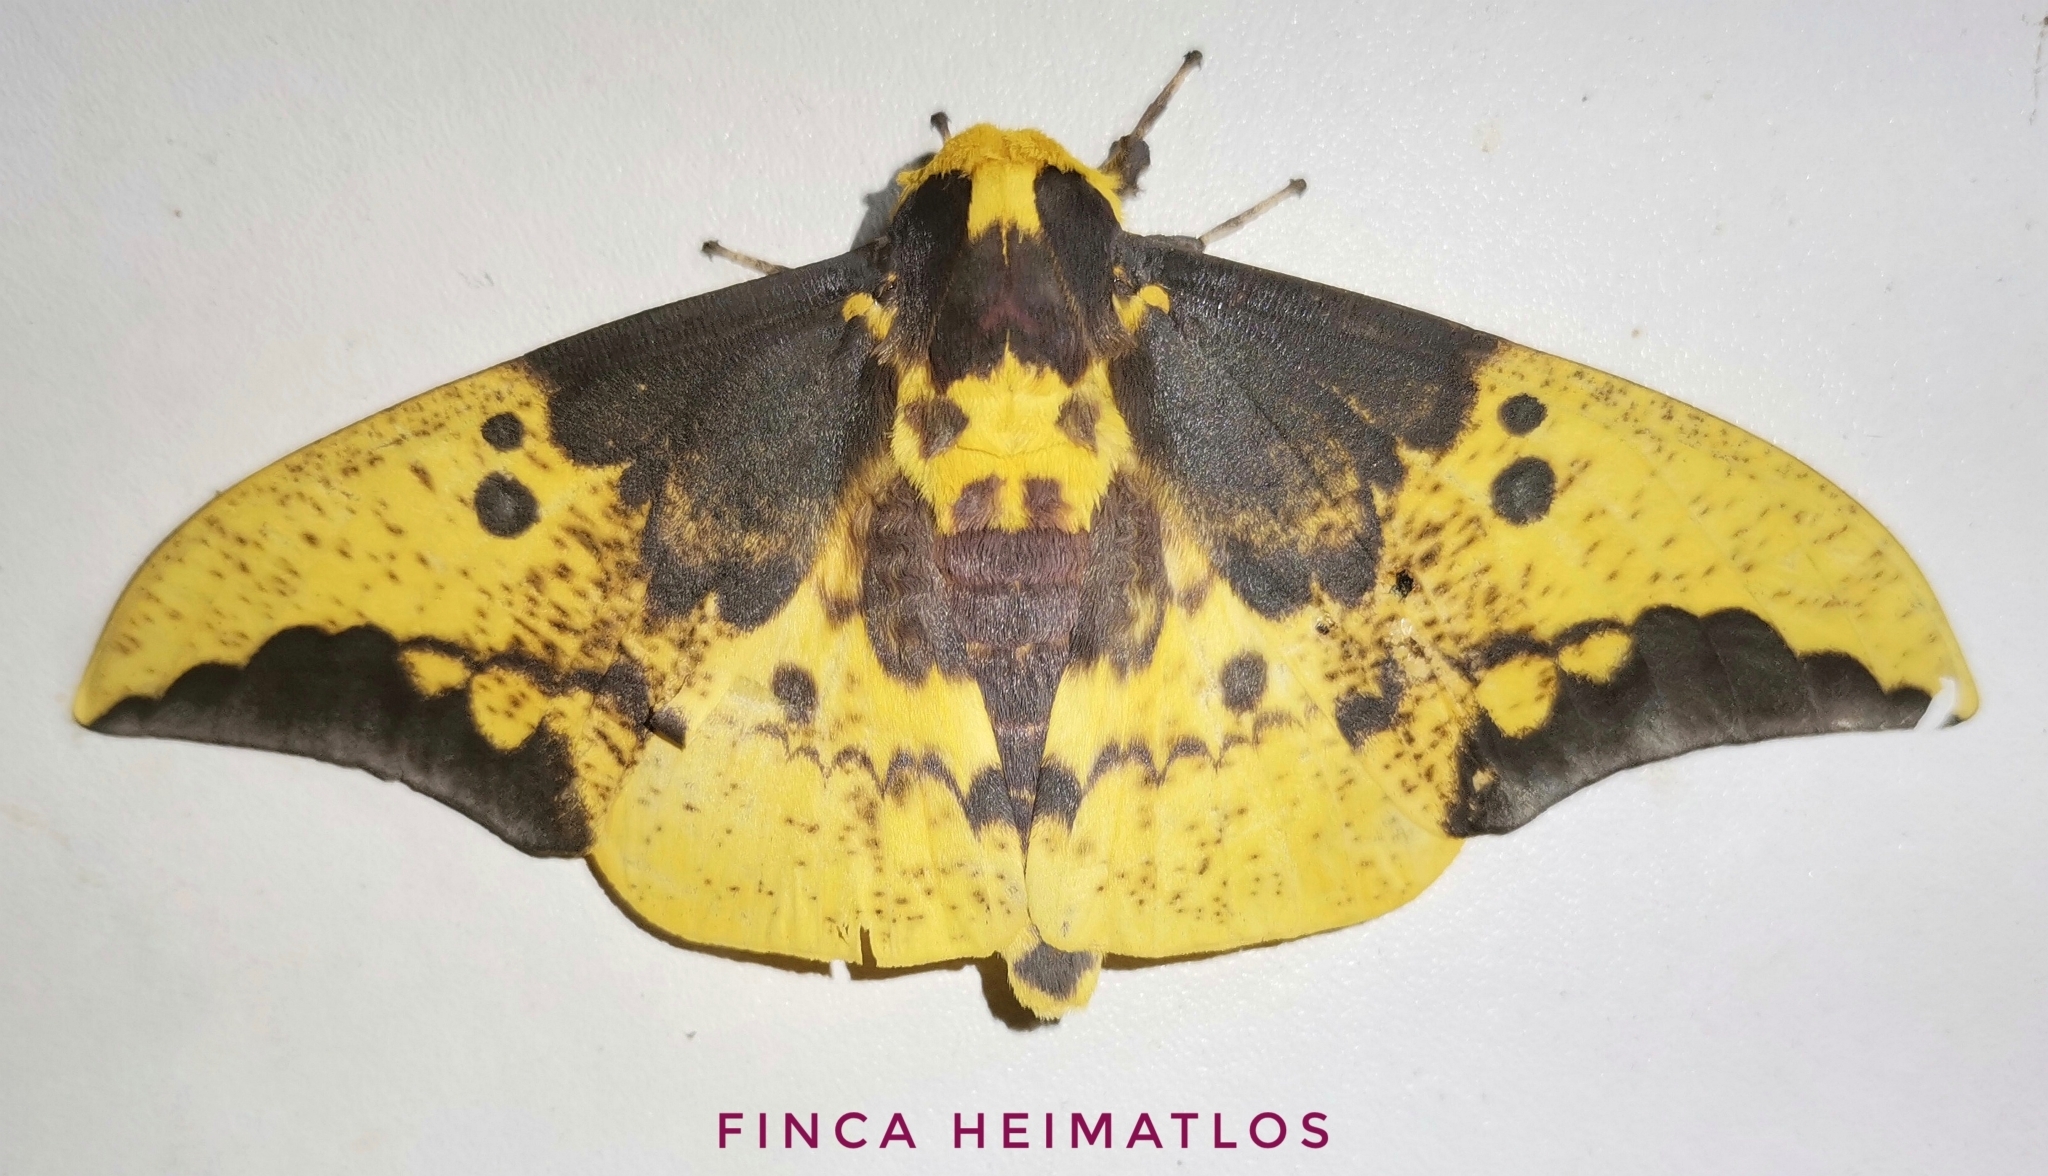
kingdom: Animalia
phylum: Arthropoda
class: Insecta
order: Lepidoptera
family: Saturniidae
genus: Eacles
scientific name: Eacles imperialis
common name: Imperial moth
